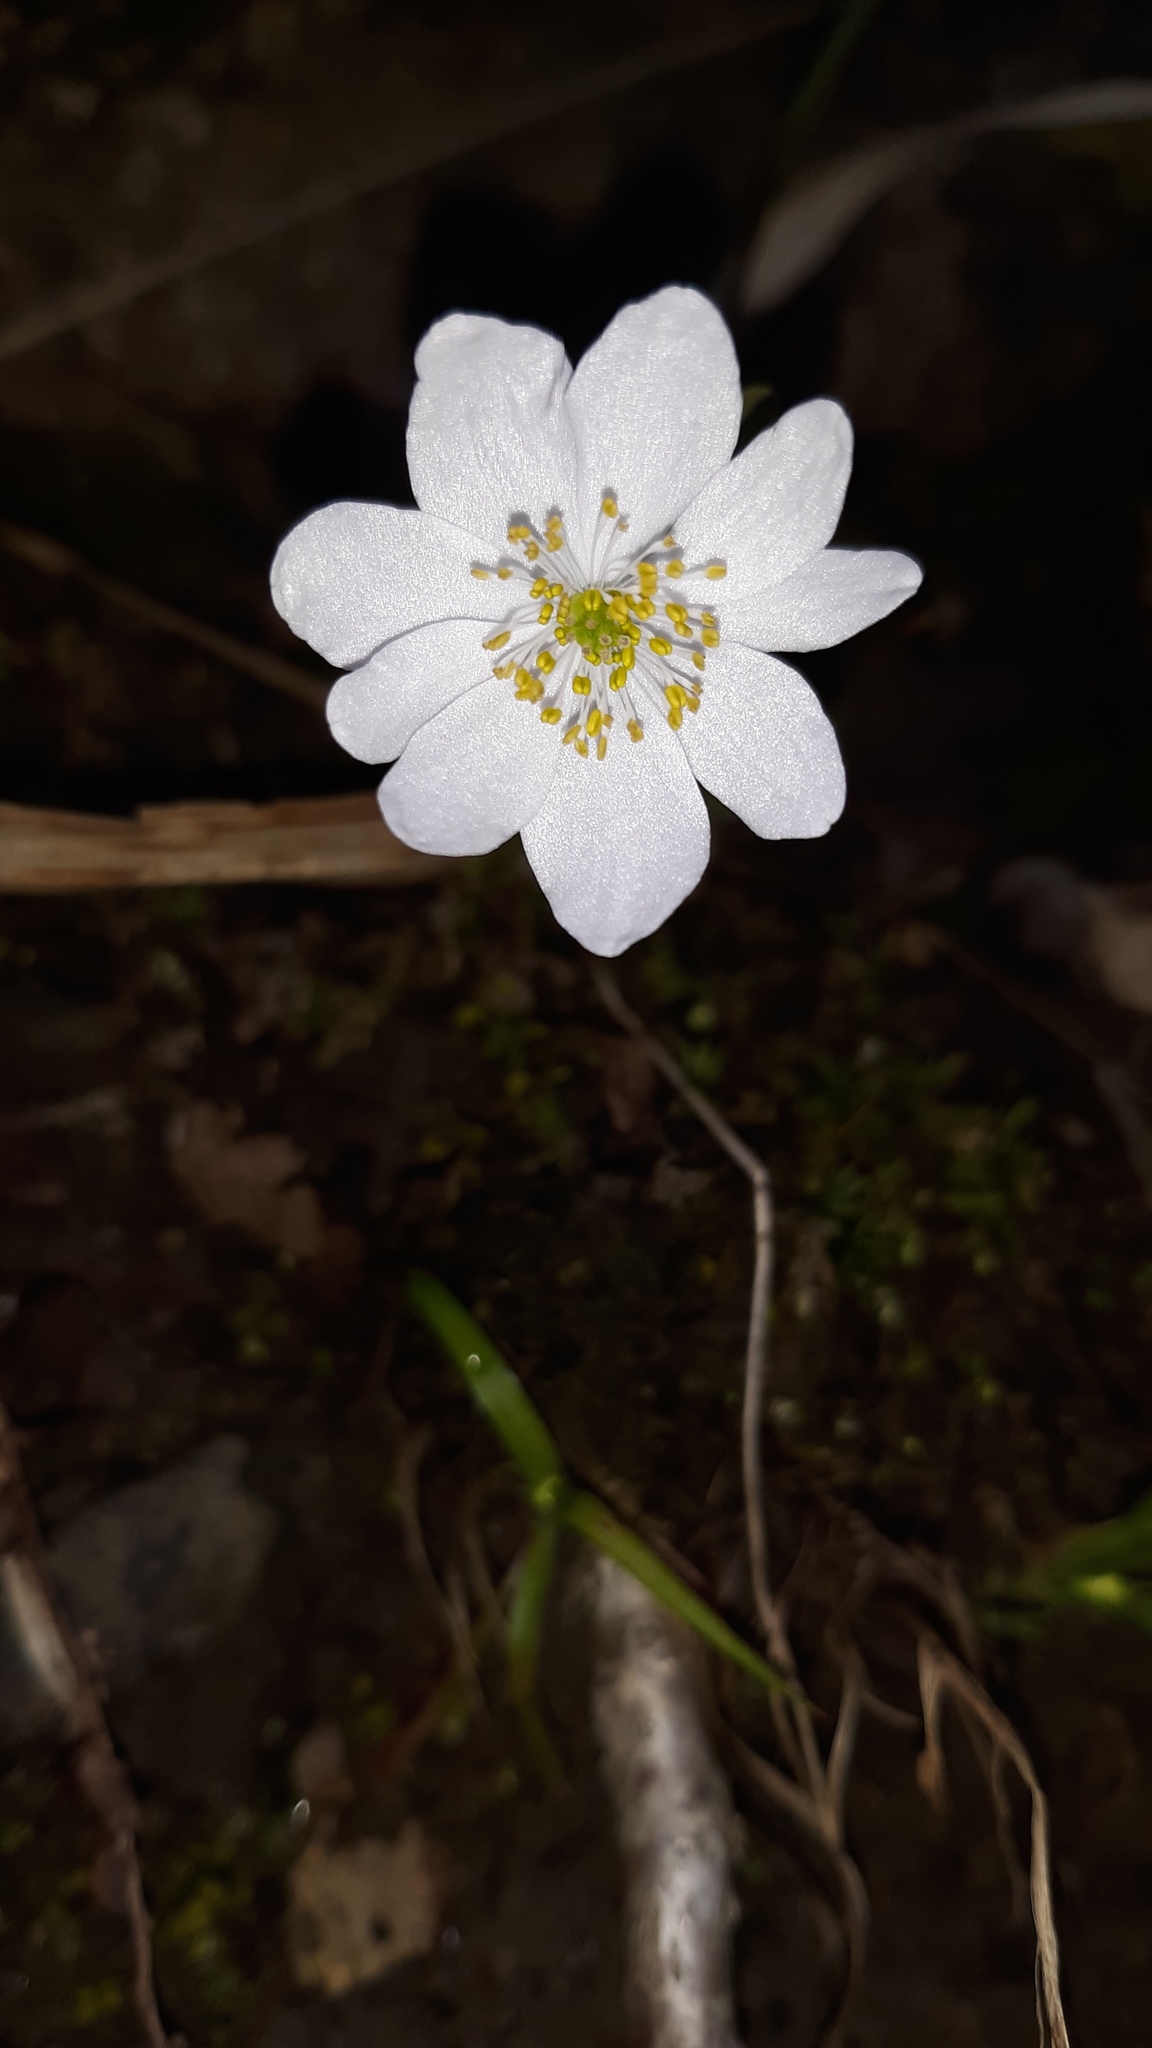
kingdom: Plantae
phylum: Tracheophyta
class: Magnoliopsida
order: Ranunculales
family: Ranunculaceae
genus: Thalictrum
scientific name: Thalictrum thalictroides
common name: Rue-anemone
